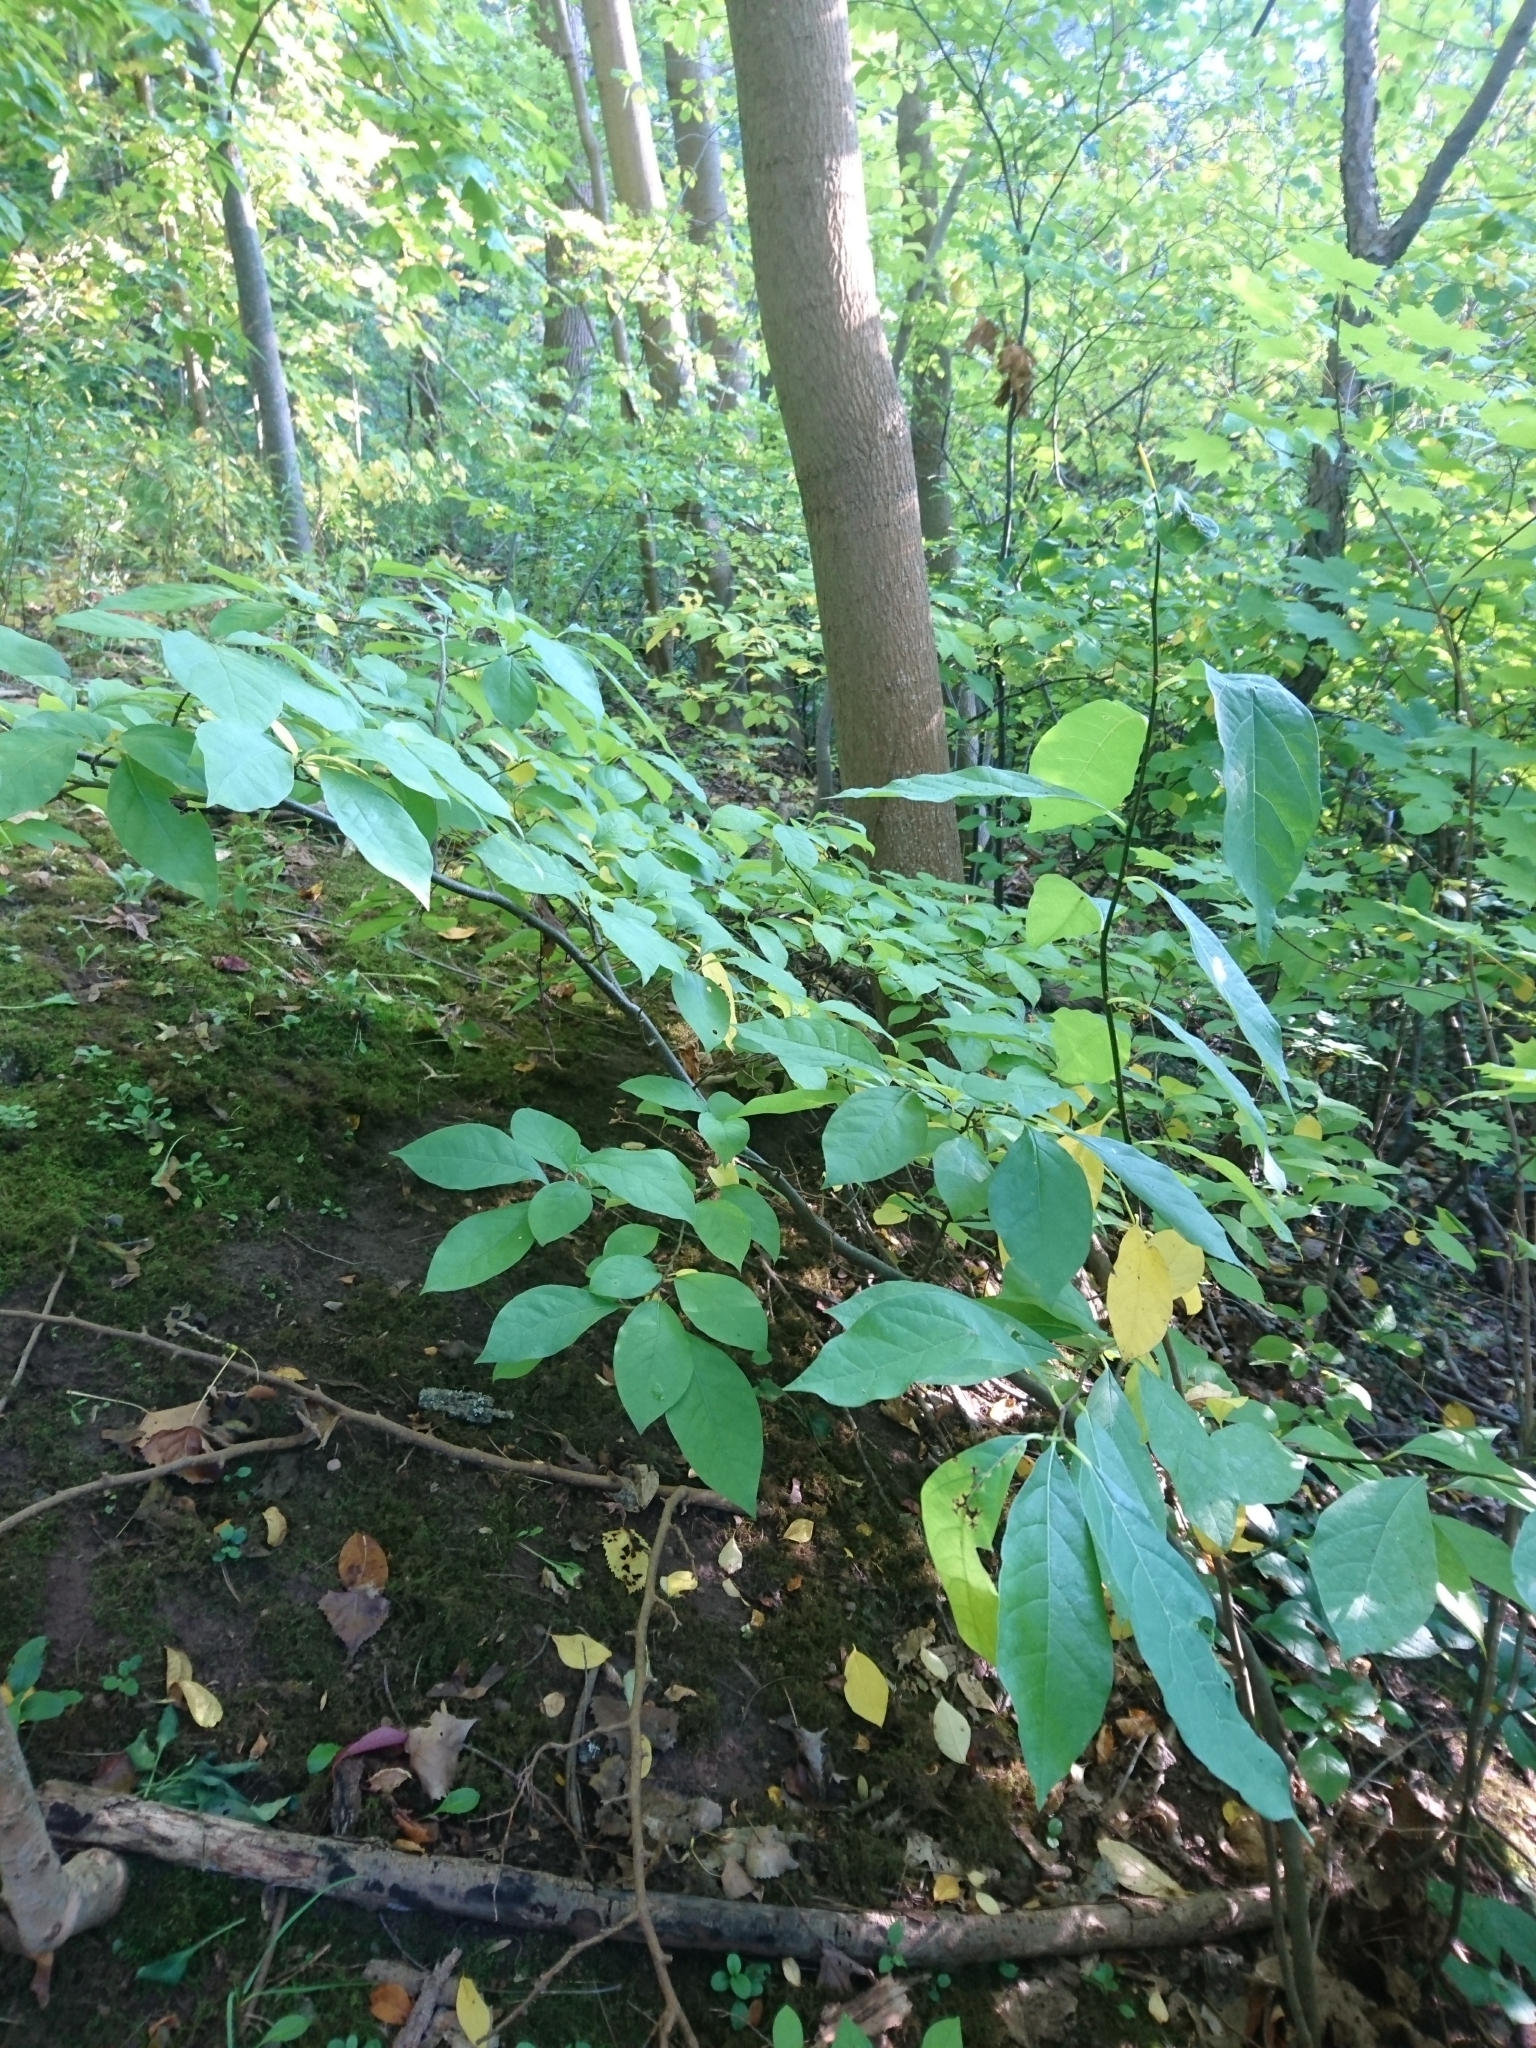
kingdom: Plantae
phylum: Tracheophyta
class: Magnoliopsida
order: Laurales
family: Lauraceae
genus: Lindera
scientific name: Lindera benzoin
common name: Spicebush
